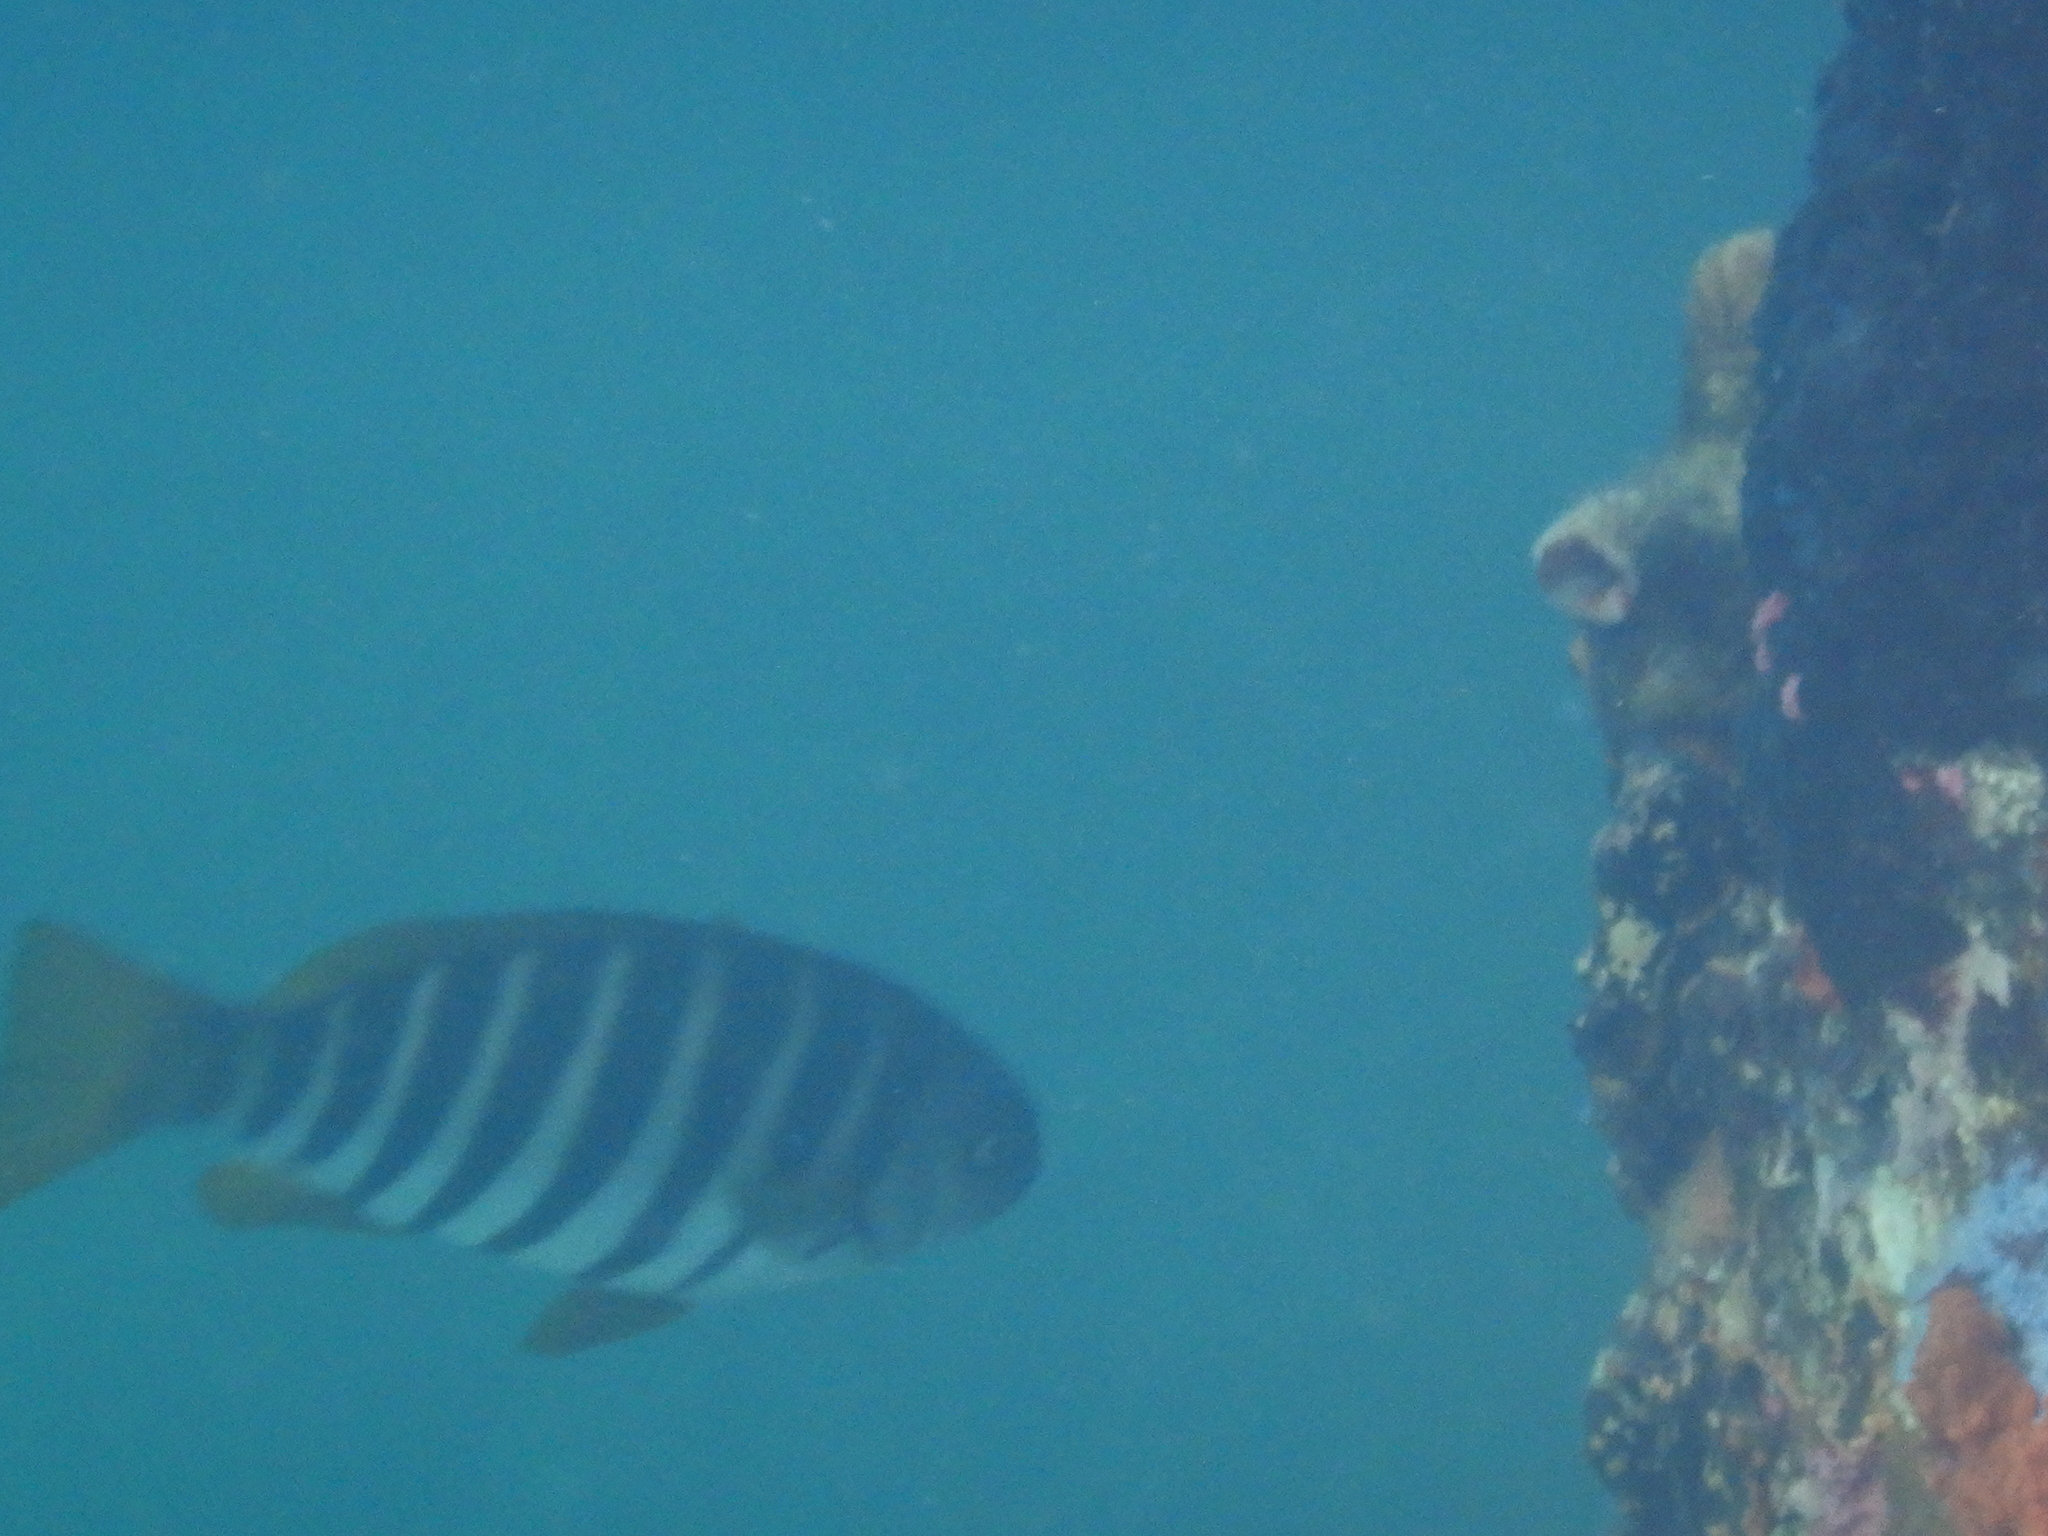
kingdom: Animalia
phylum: Chordata
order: Perciformes
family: Kyphosidae
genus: Girella
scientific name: Girella zebra
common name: Stripey bream
